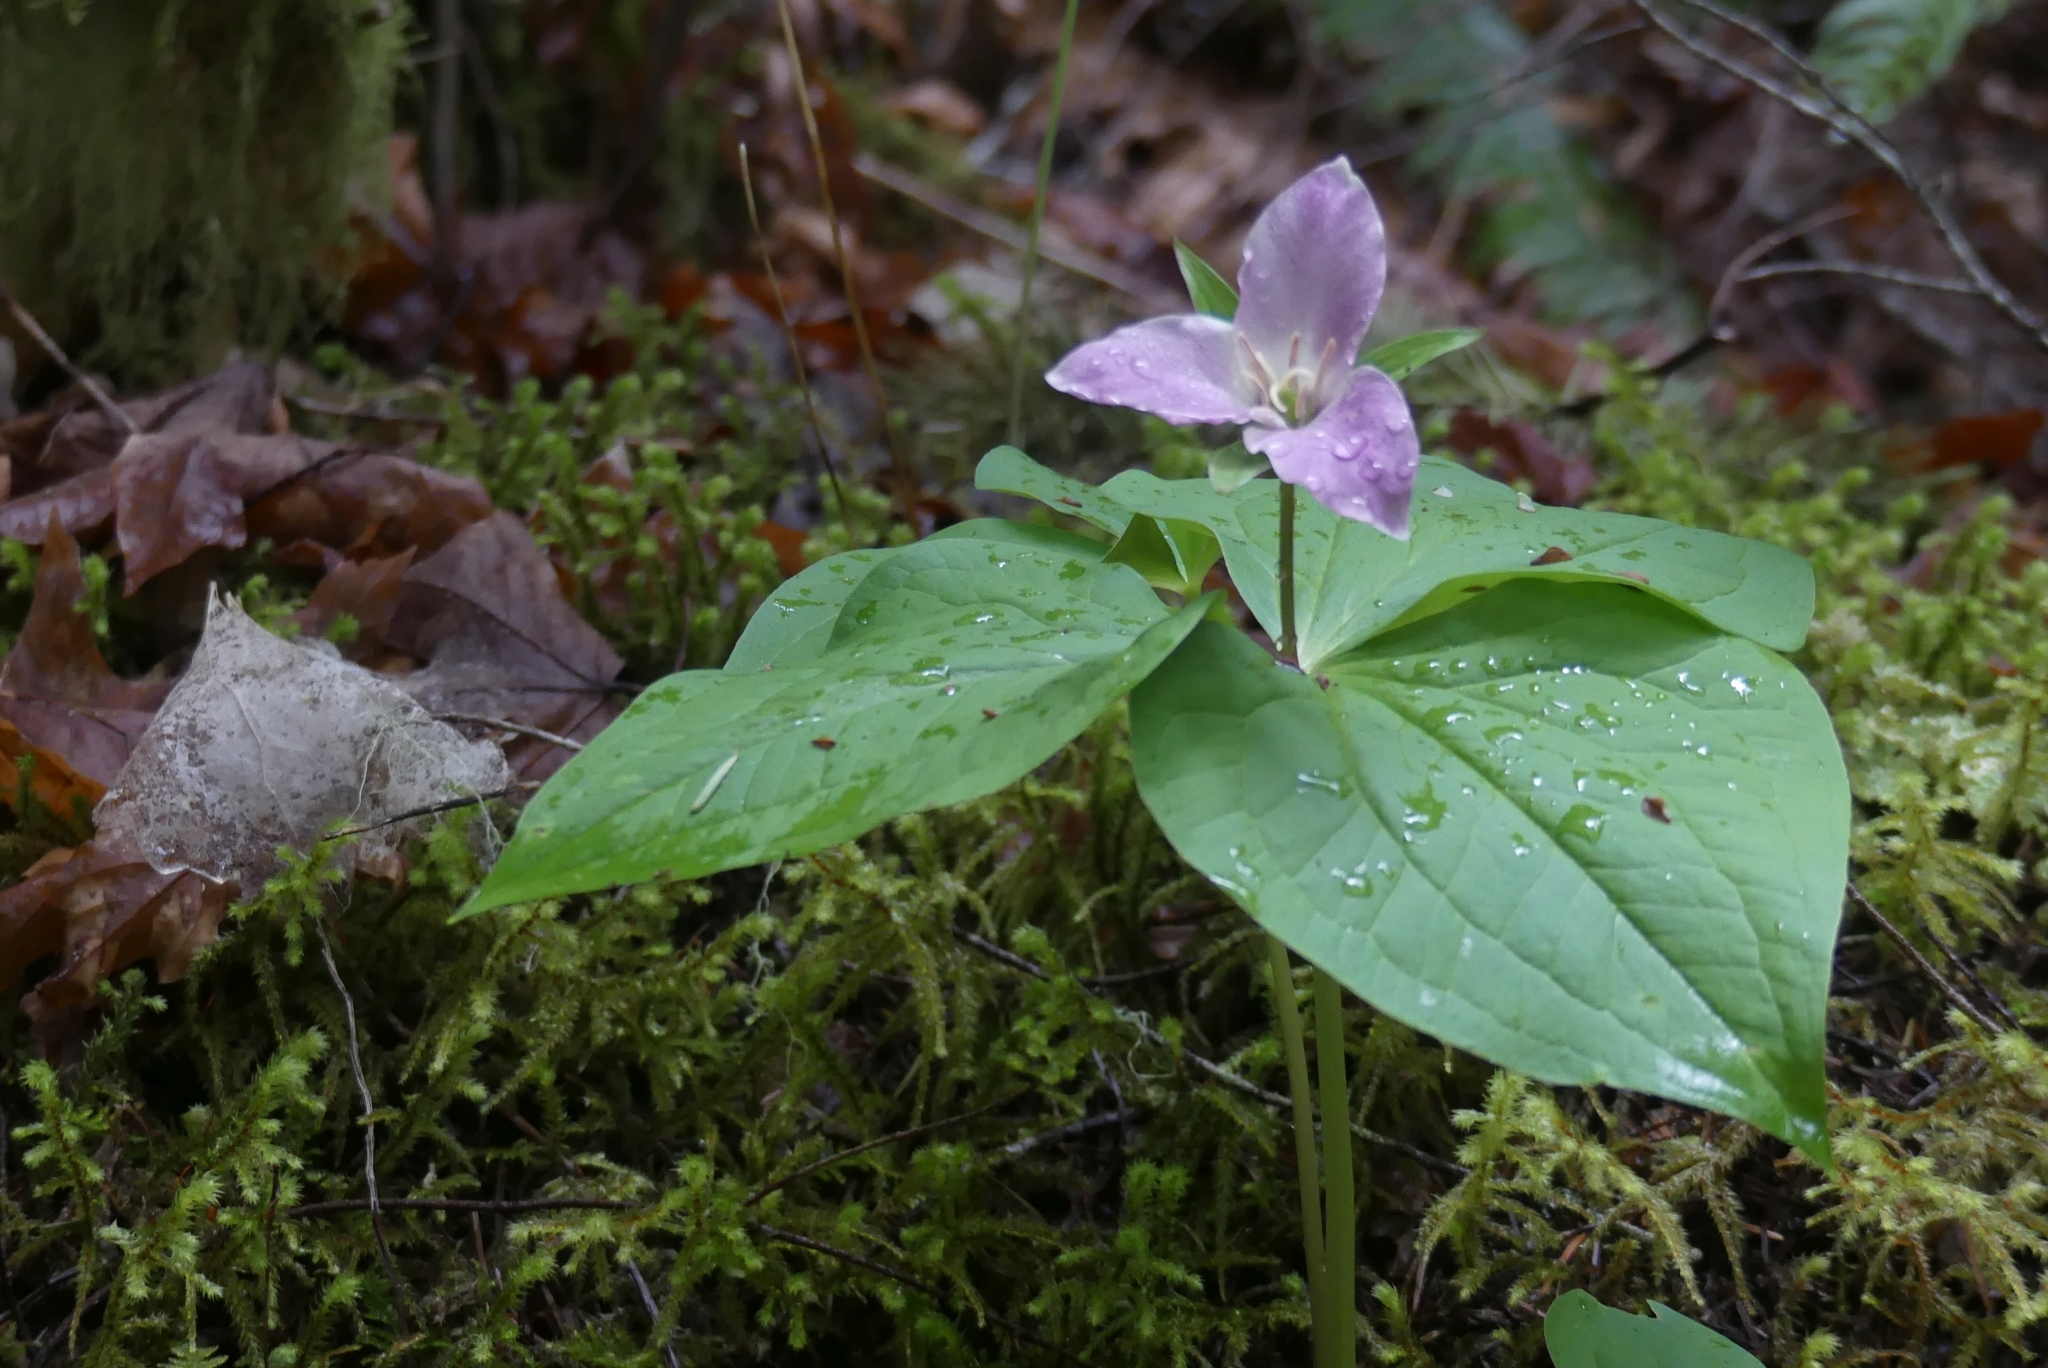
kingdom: Plantae
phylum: Tracheophyta
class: Liliopsida
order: Liliales
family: Melanthiaceae
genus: Trillium
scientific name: Trillium ovatum
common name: Pacific trillium
